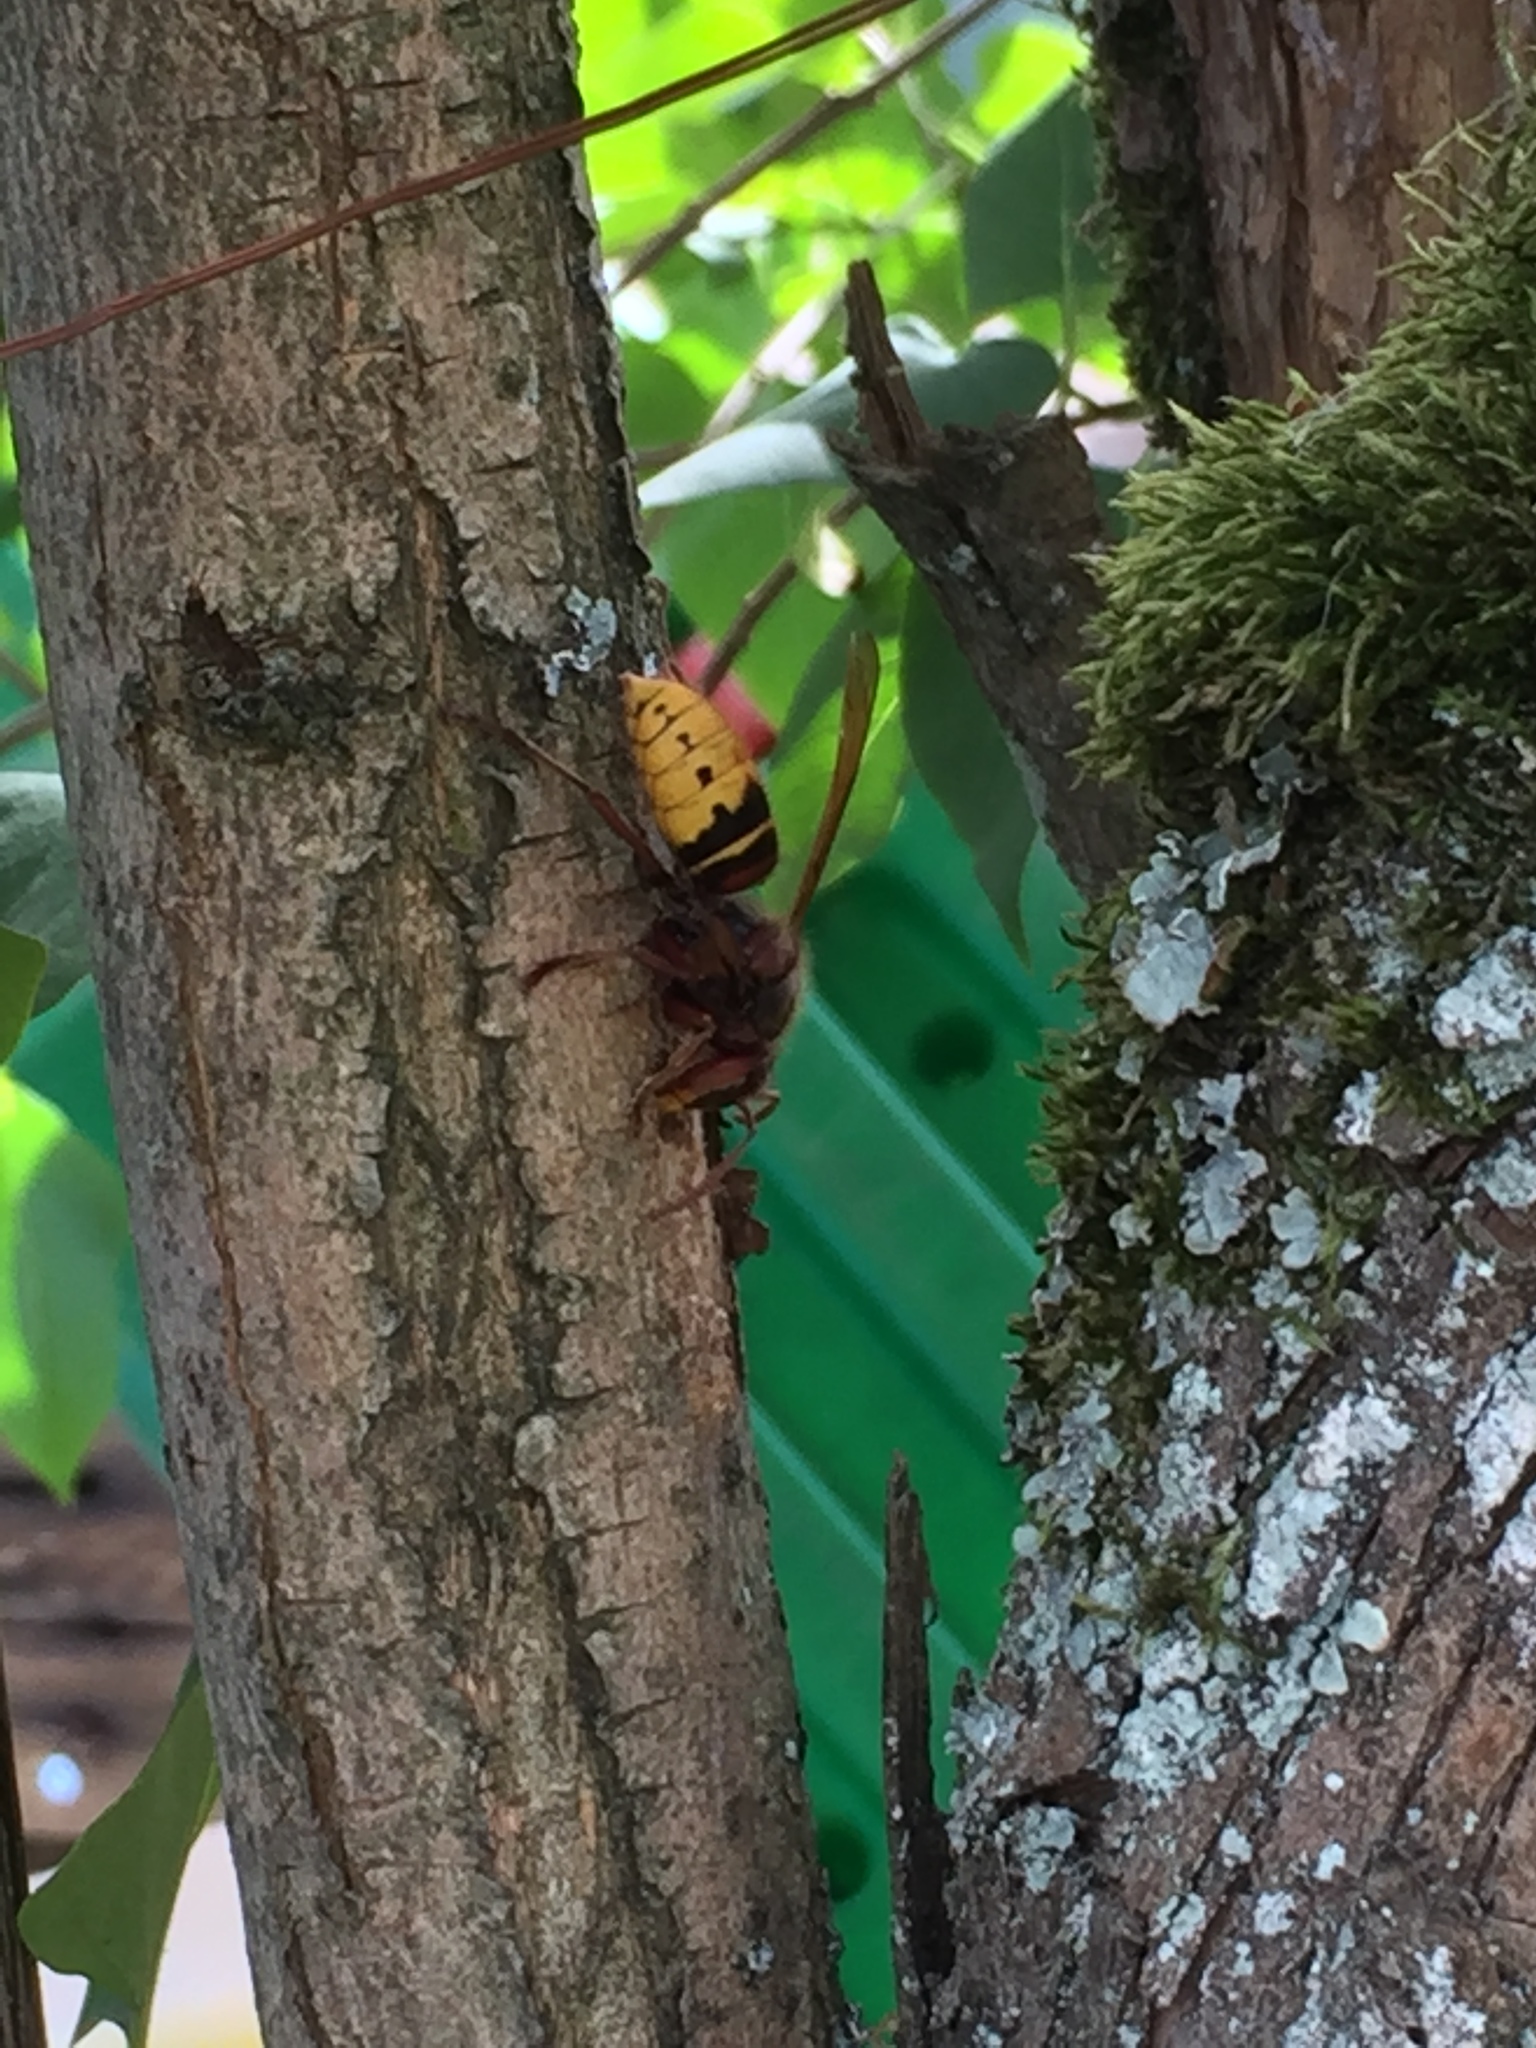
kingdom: Animalia
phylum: Arthropoda
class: Insecta
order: Hymenoptera
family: Vespidae
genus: Vespa
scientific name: Vespa crabro
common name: Hornet
